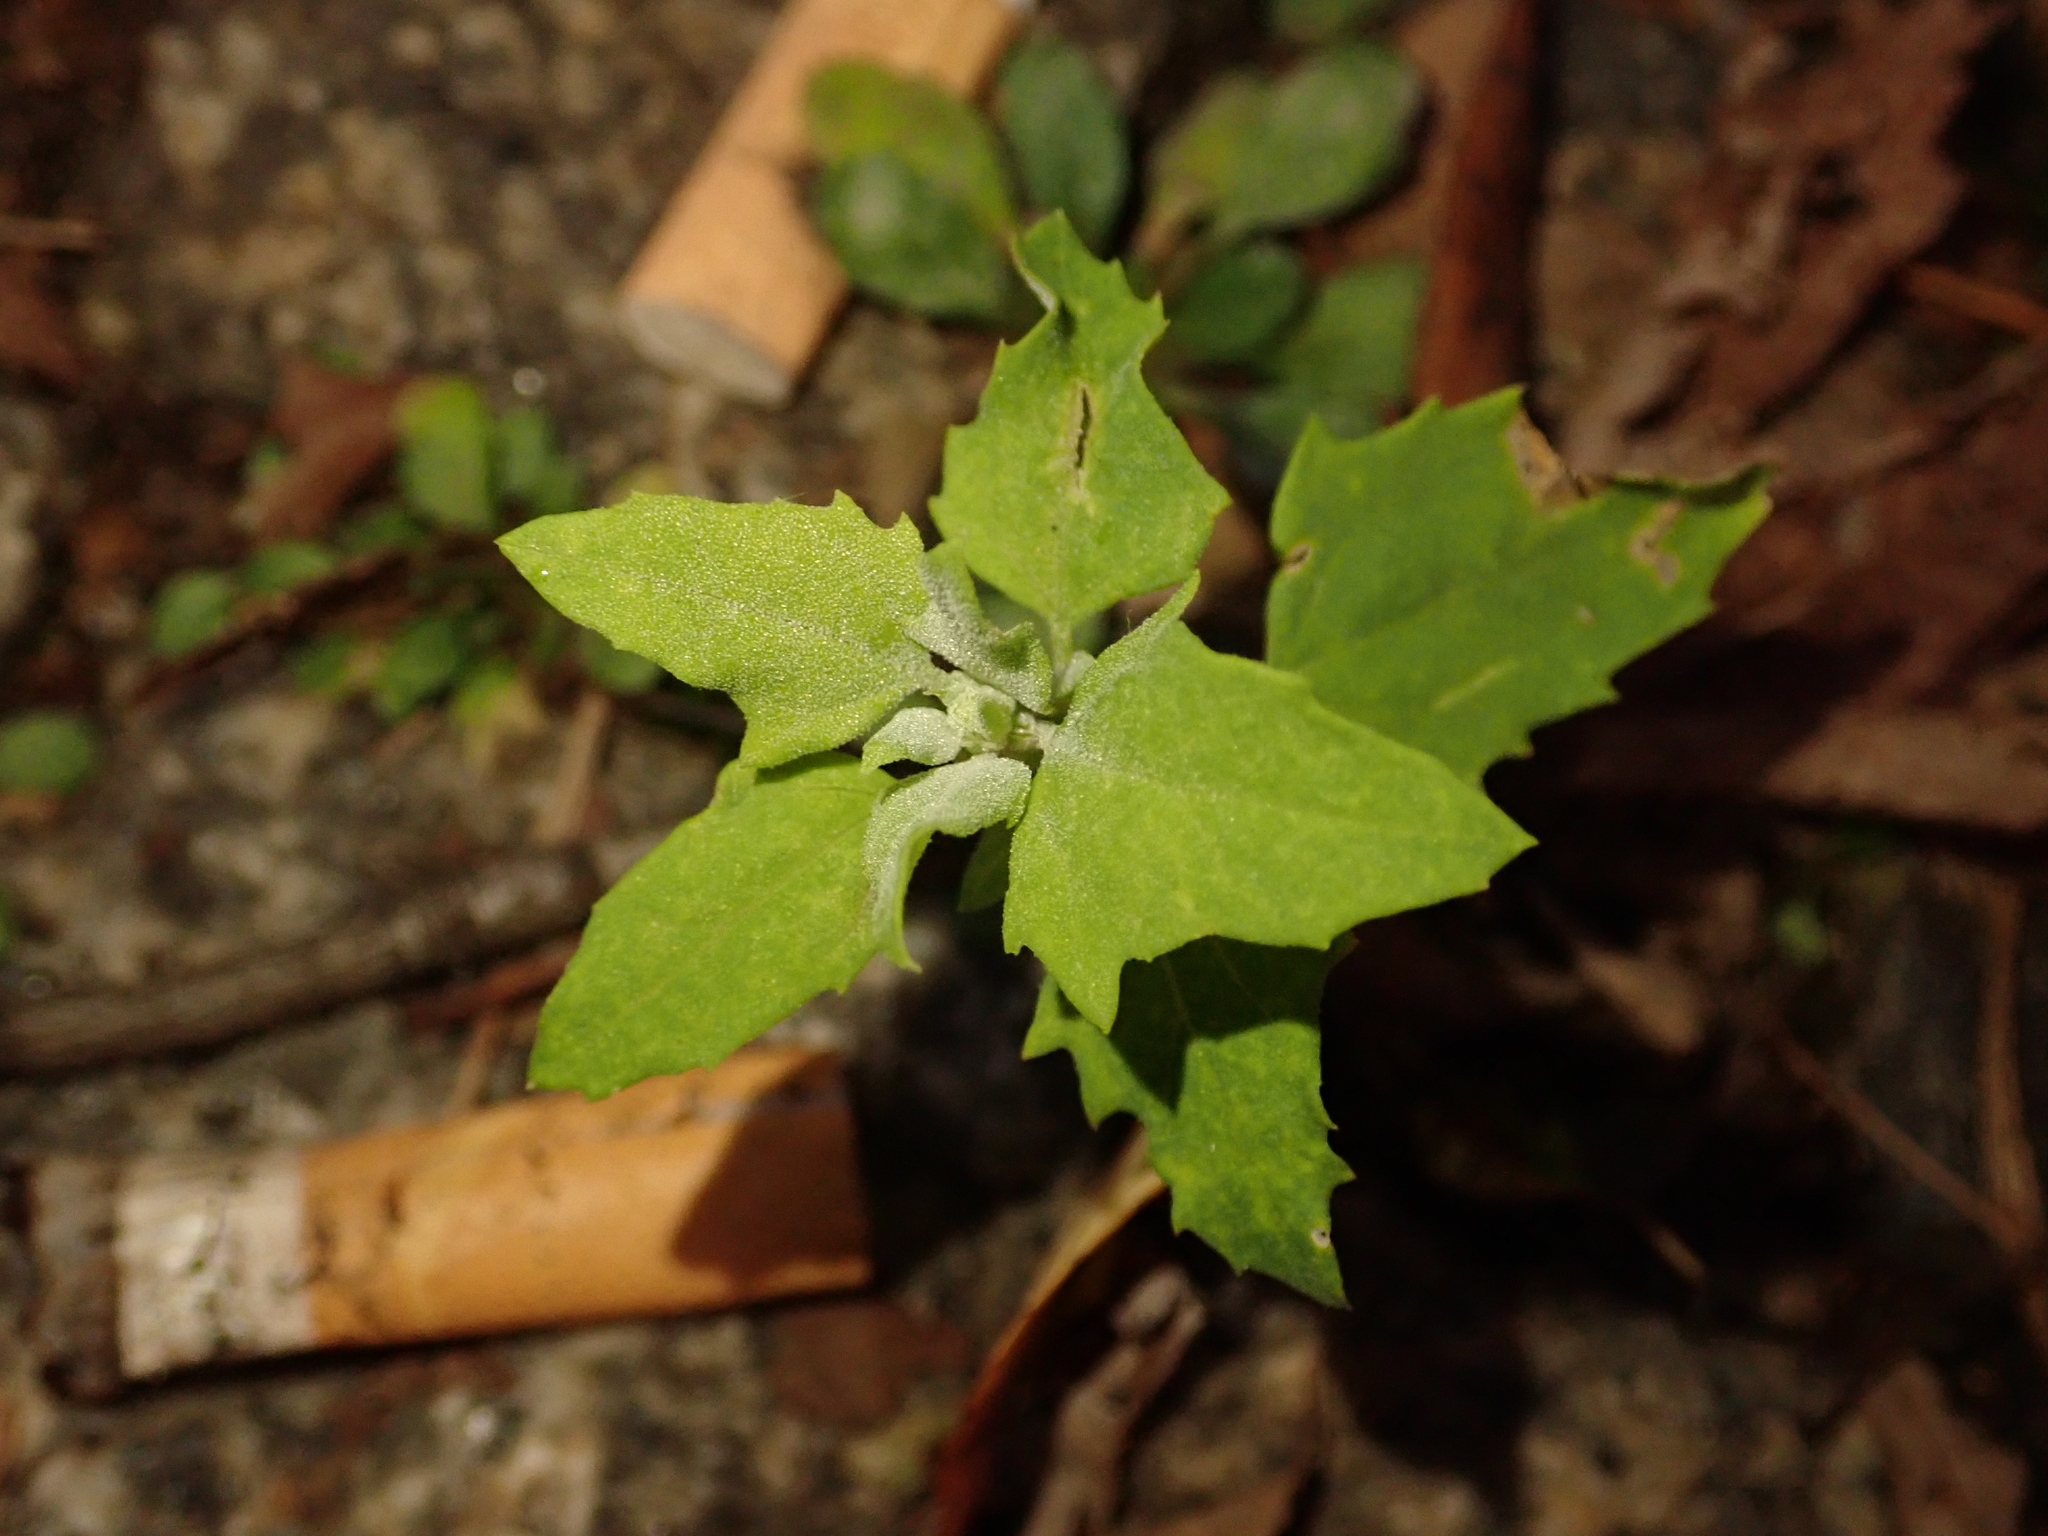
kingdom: Plantae
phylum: Tracheophyta
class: Magnoliopsida
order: Caryophyllales
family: Amaranthaceae
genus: Chenopodium
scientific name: Chenopodium album
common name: Fat-hen
